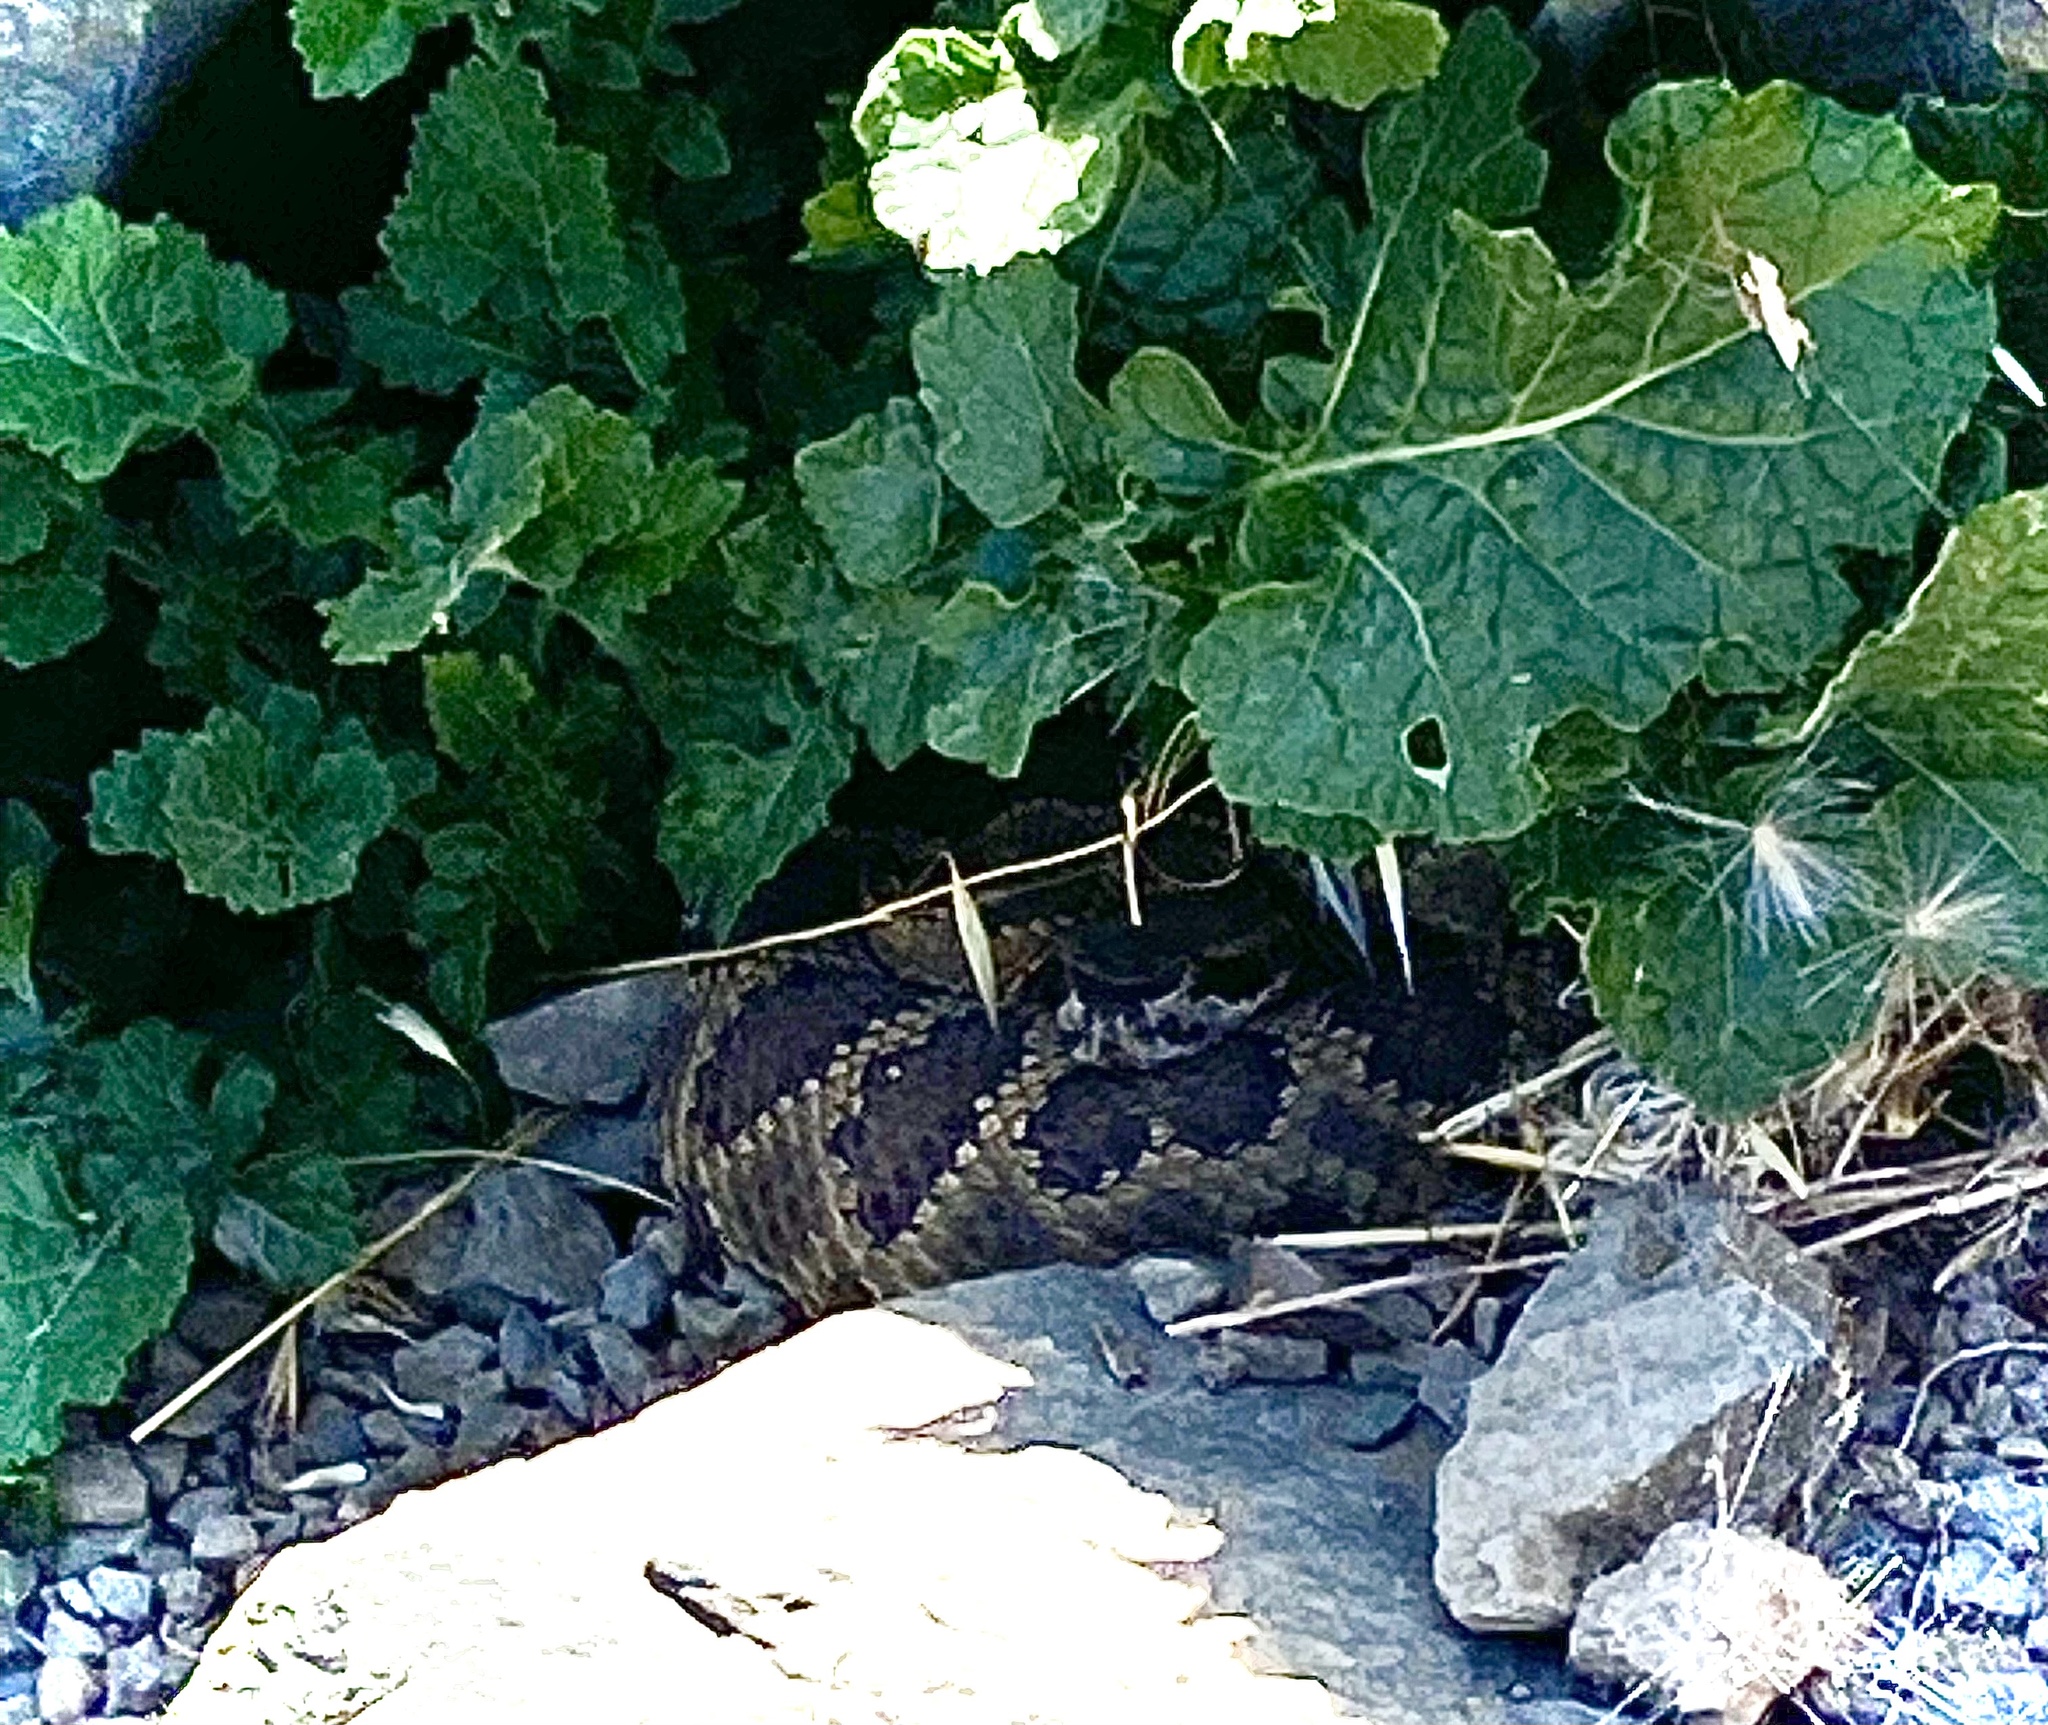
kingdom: Animalia
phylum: Chordata
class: Squamata
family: Viperidae
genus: Crotalus
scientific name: Crotalus oreganus
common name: Abyssus
